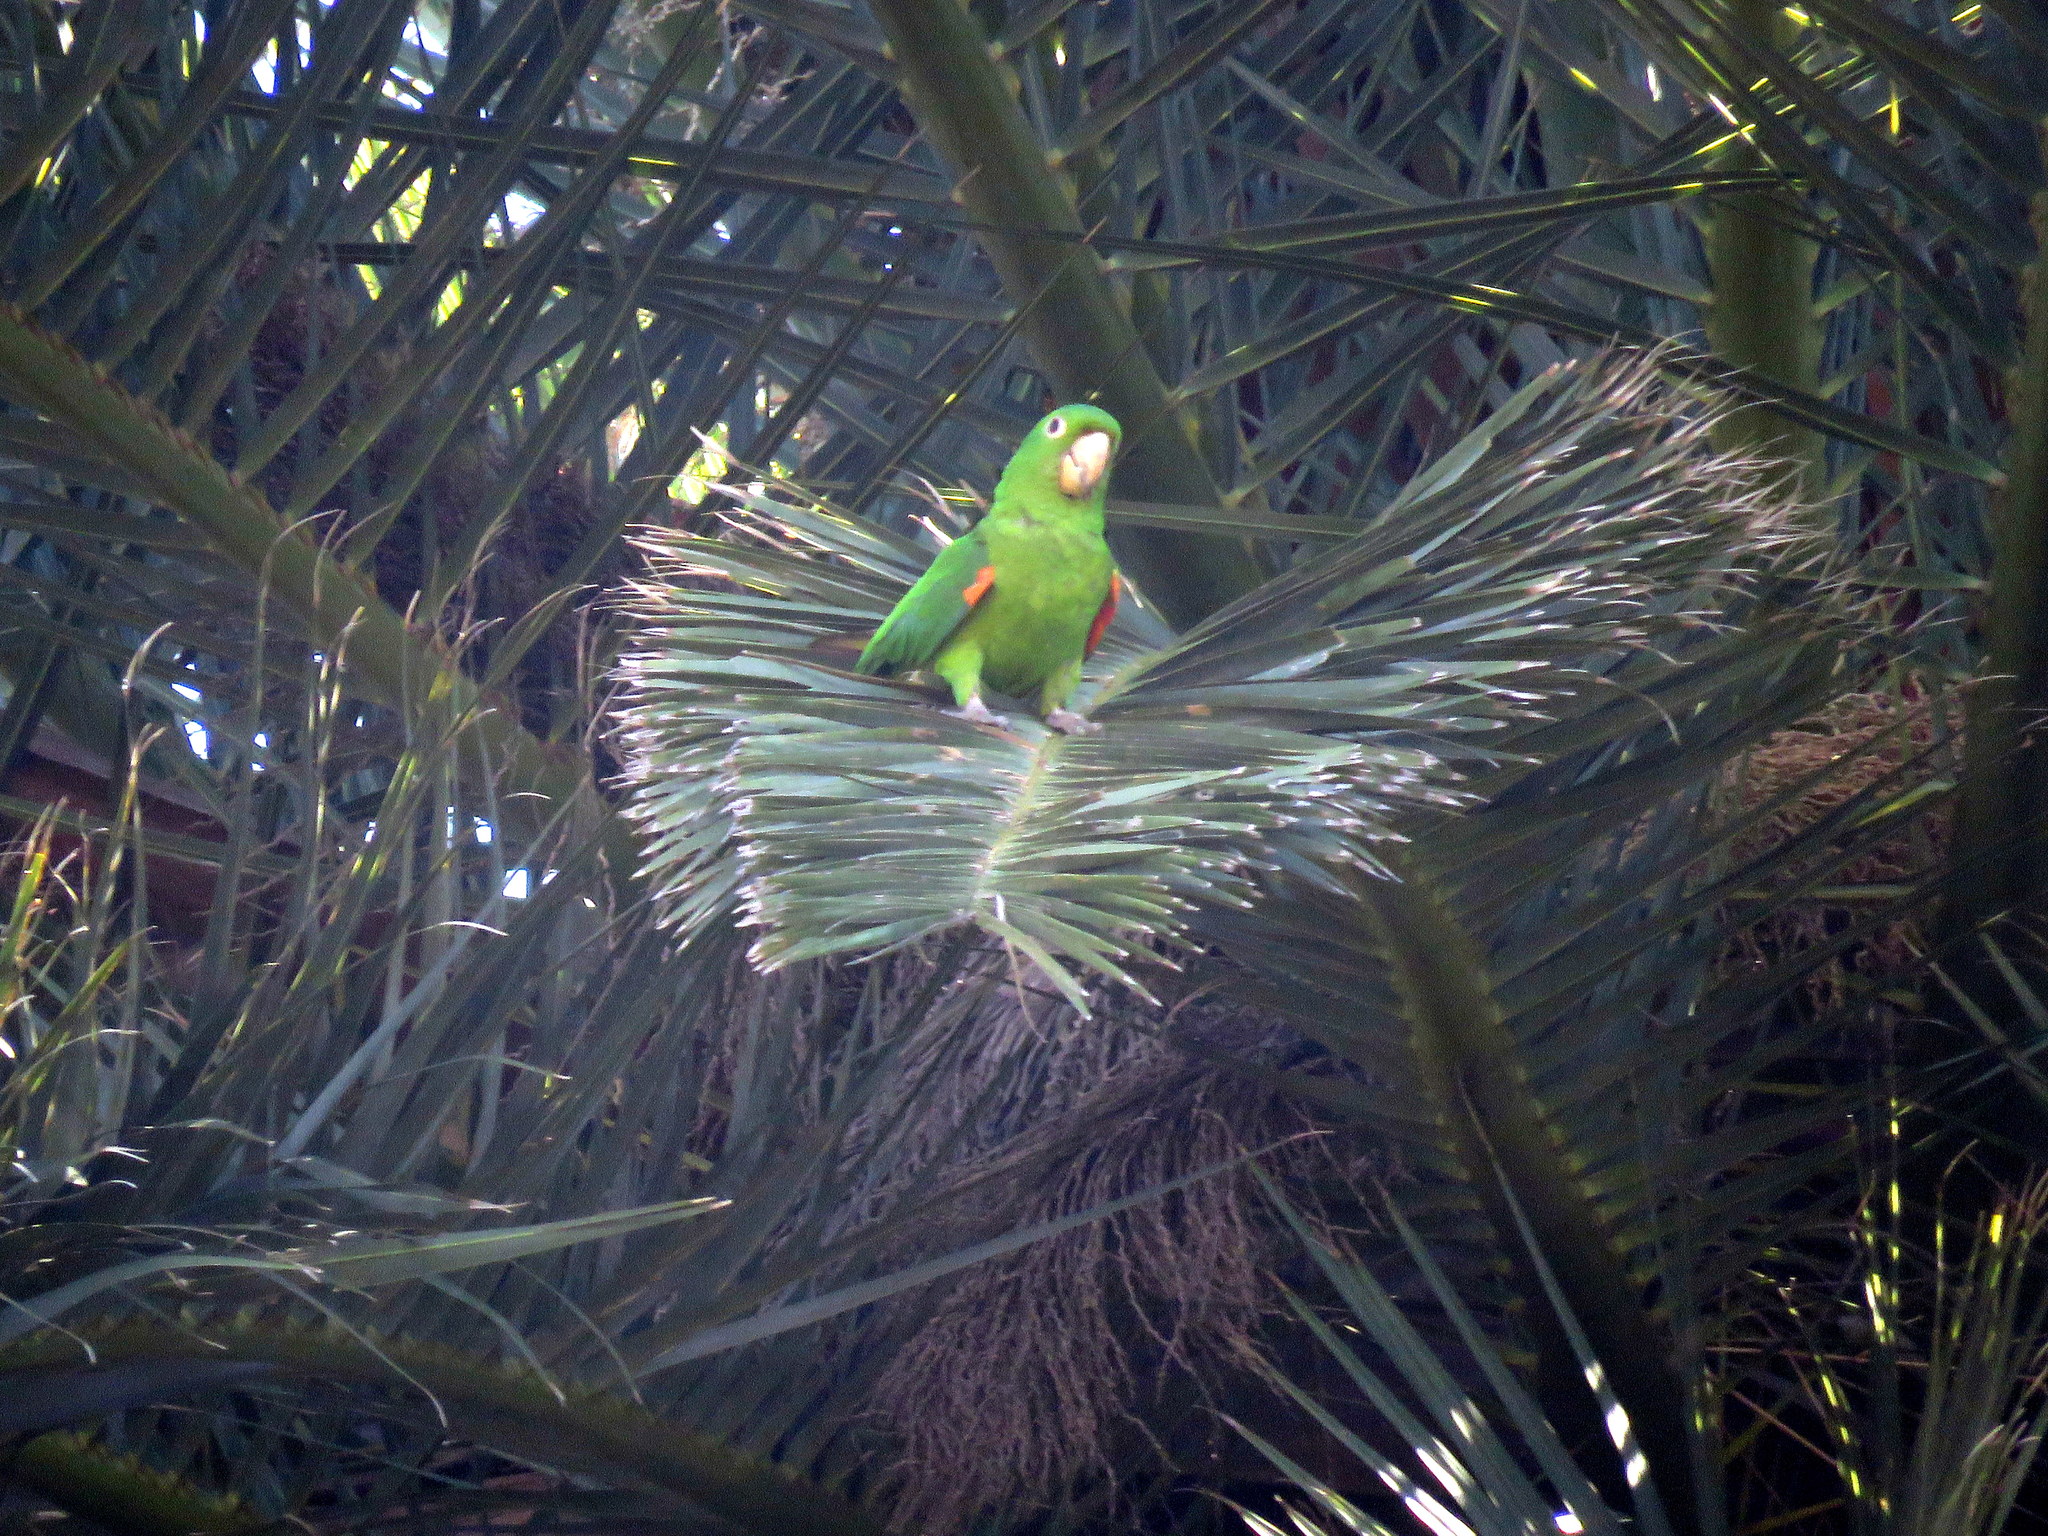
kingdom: Animalia
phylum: Chordata
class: Aves
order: Psittaciformes
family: Psittacidae
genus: Aratinga
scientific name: Aratinga leucophthalma
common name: White-eyed parakeet
